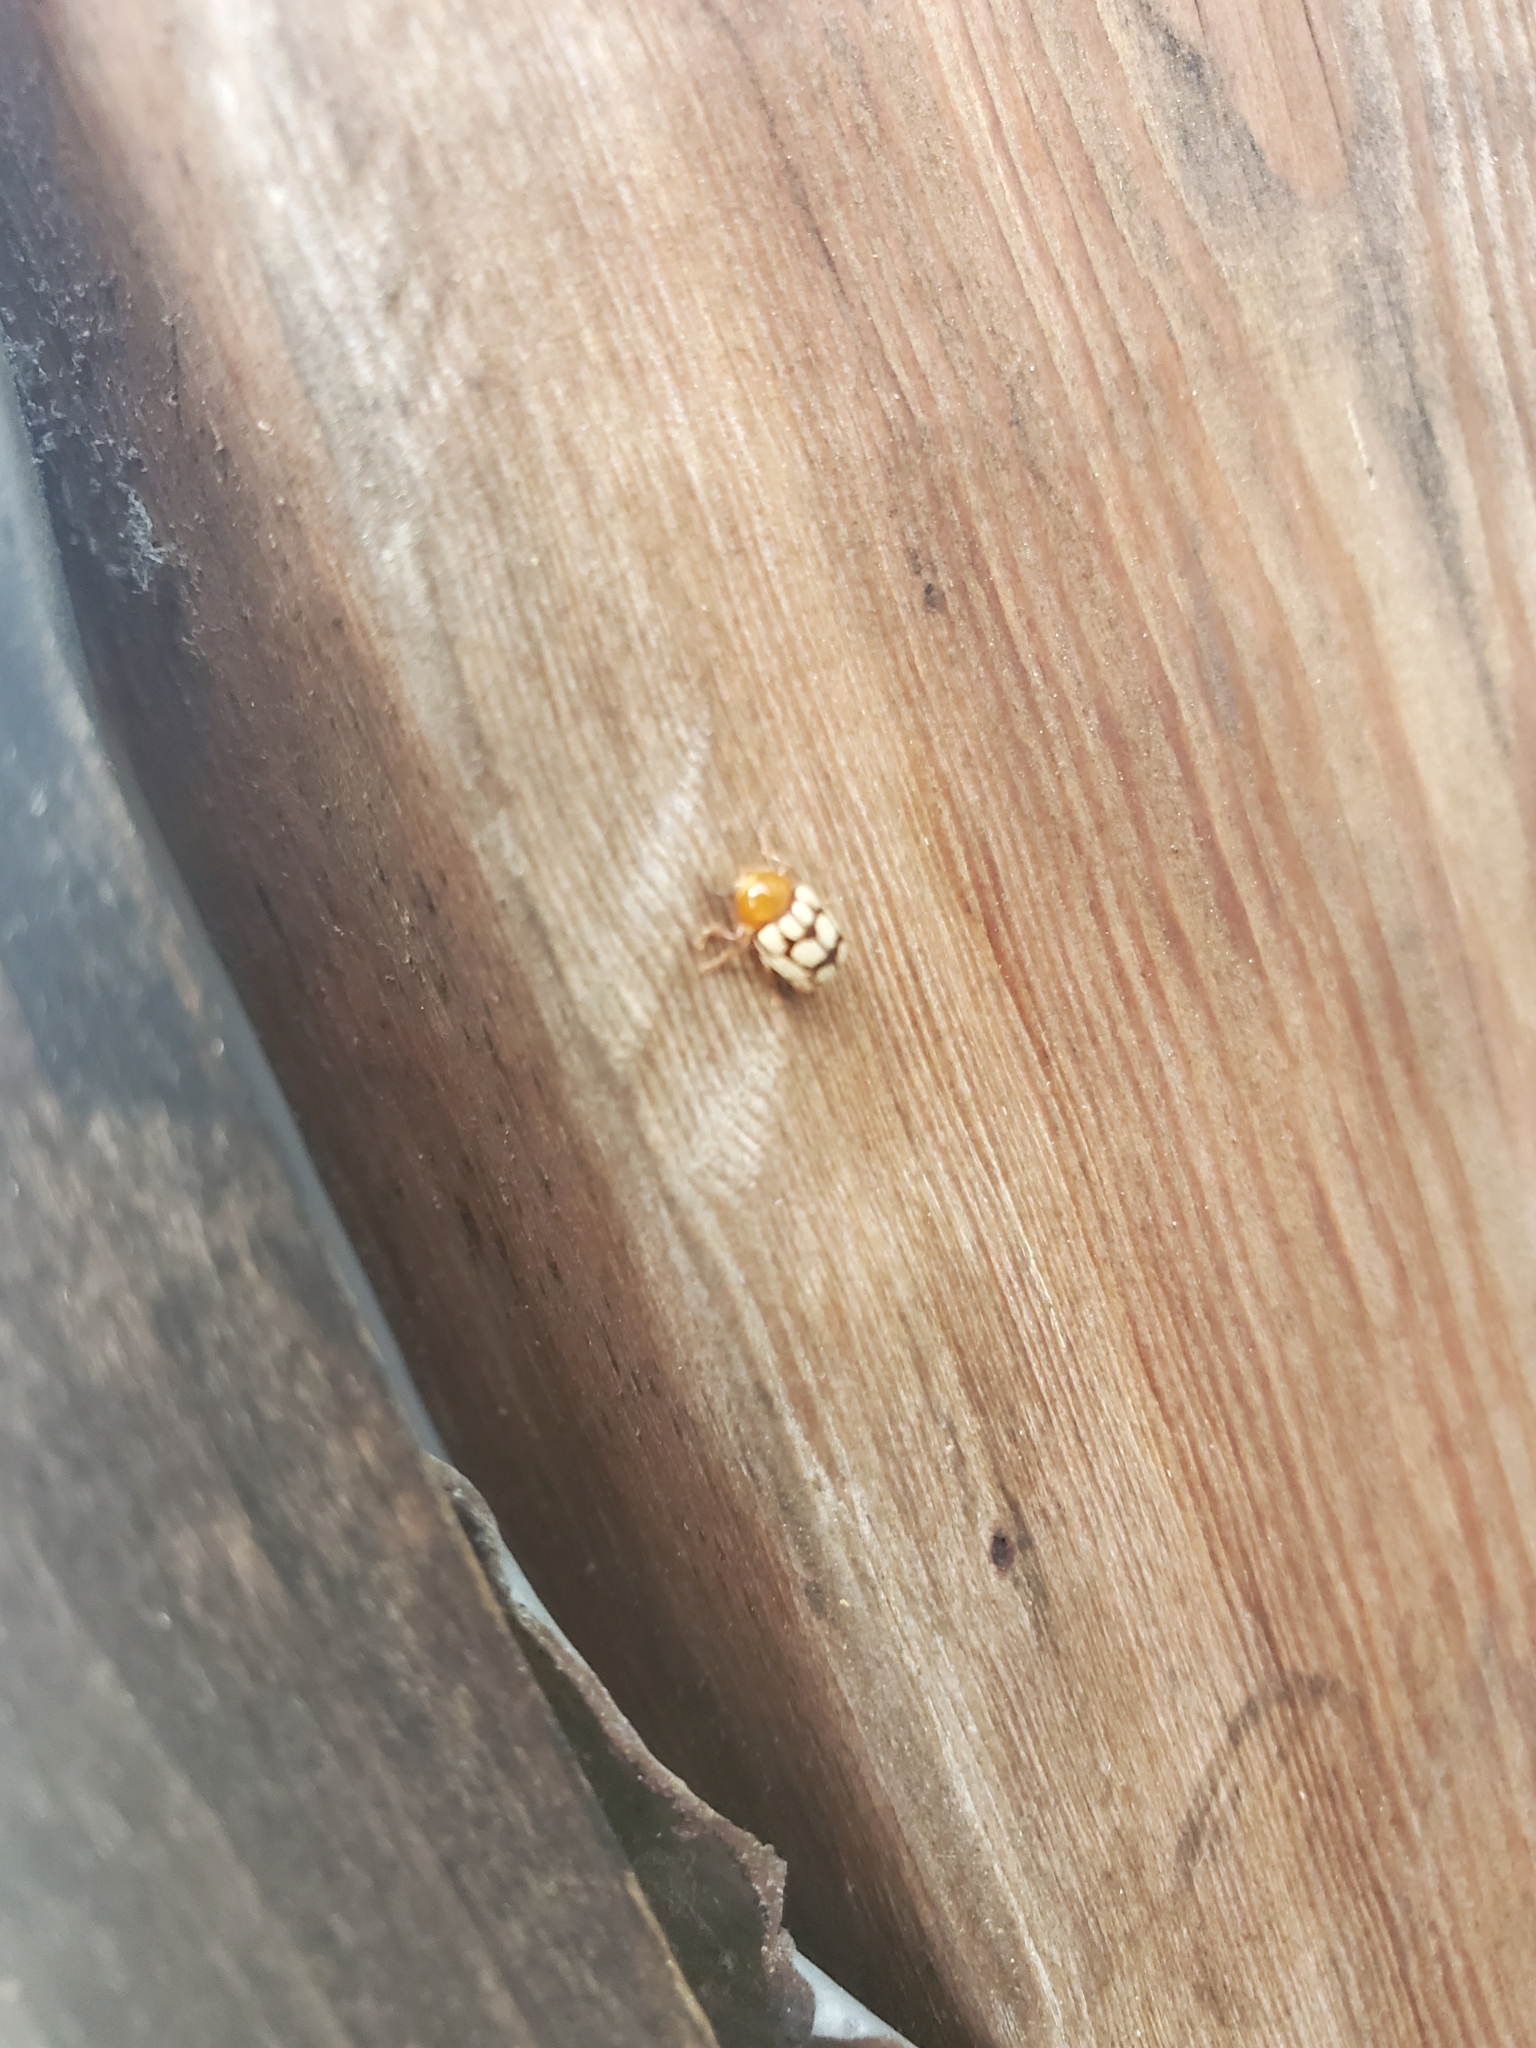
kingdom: Animalia
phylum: Arthropoda
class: Insecta
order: Coleoptera
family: Chrysomelidae
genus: Cryptocephalus
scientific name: Cryptocephalus guttulatus
